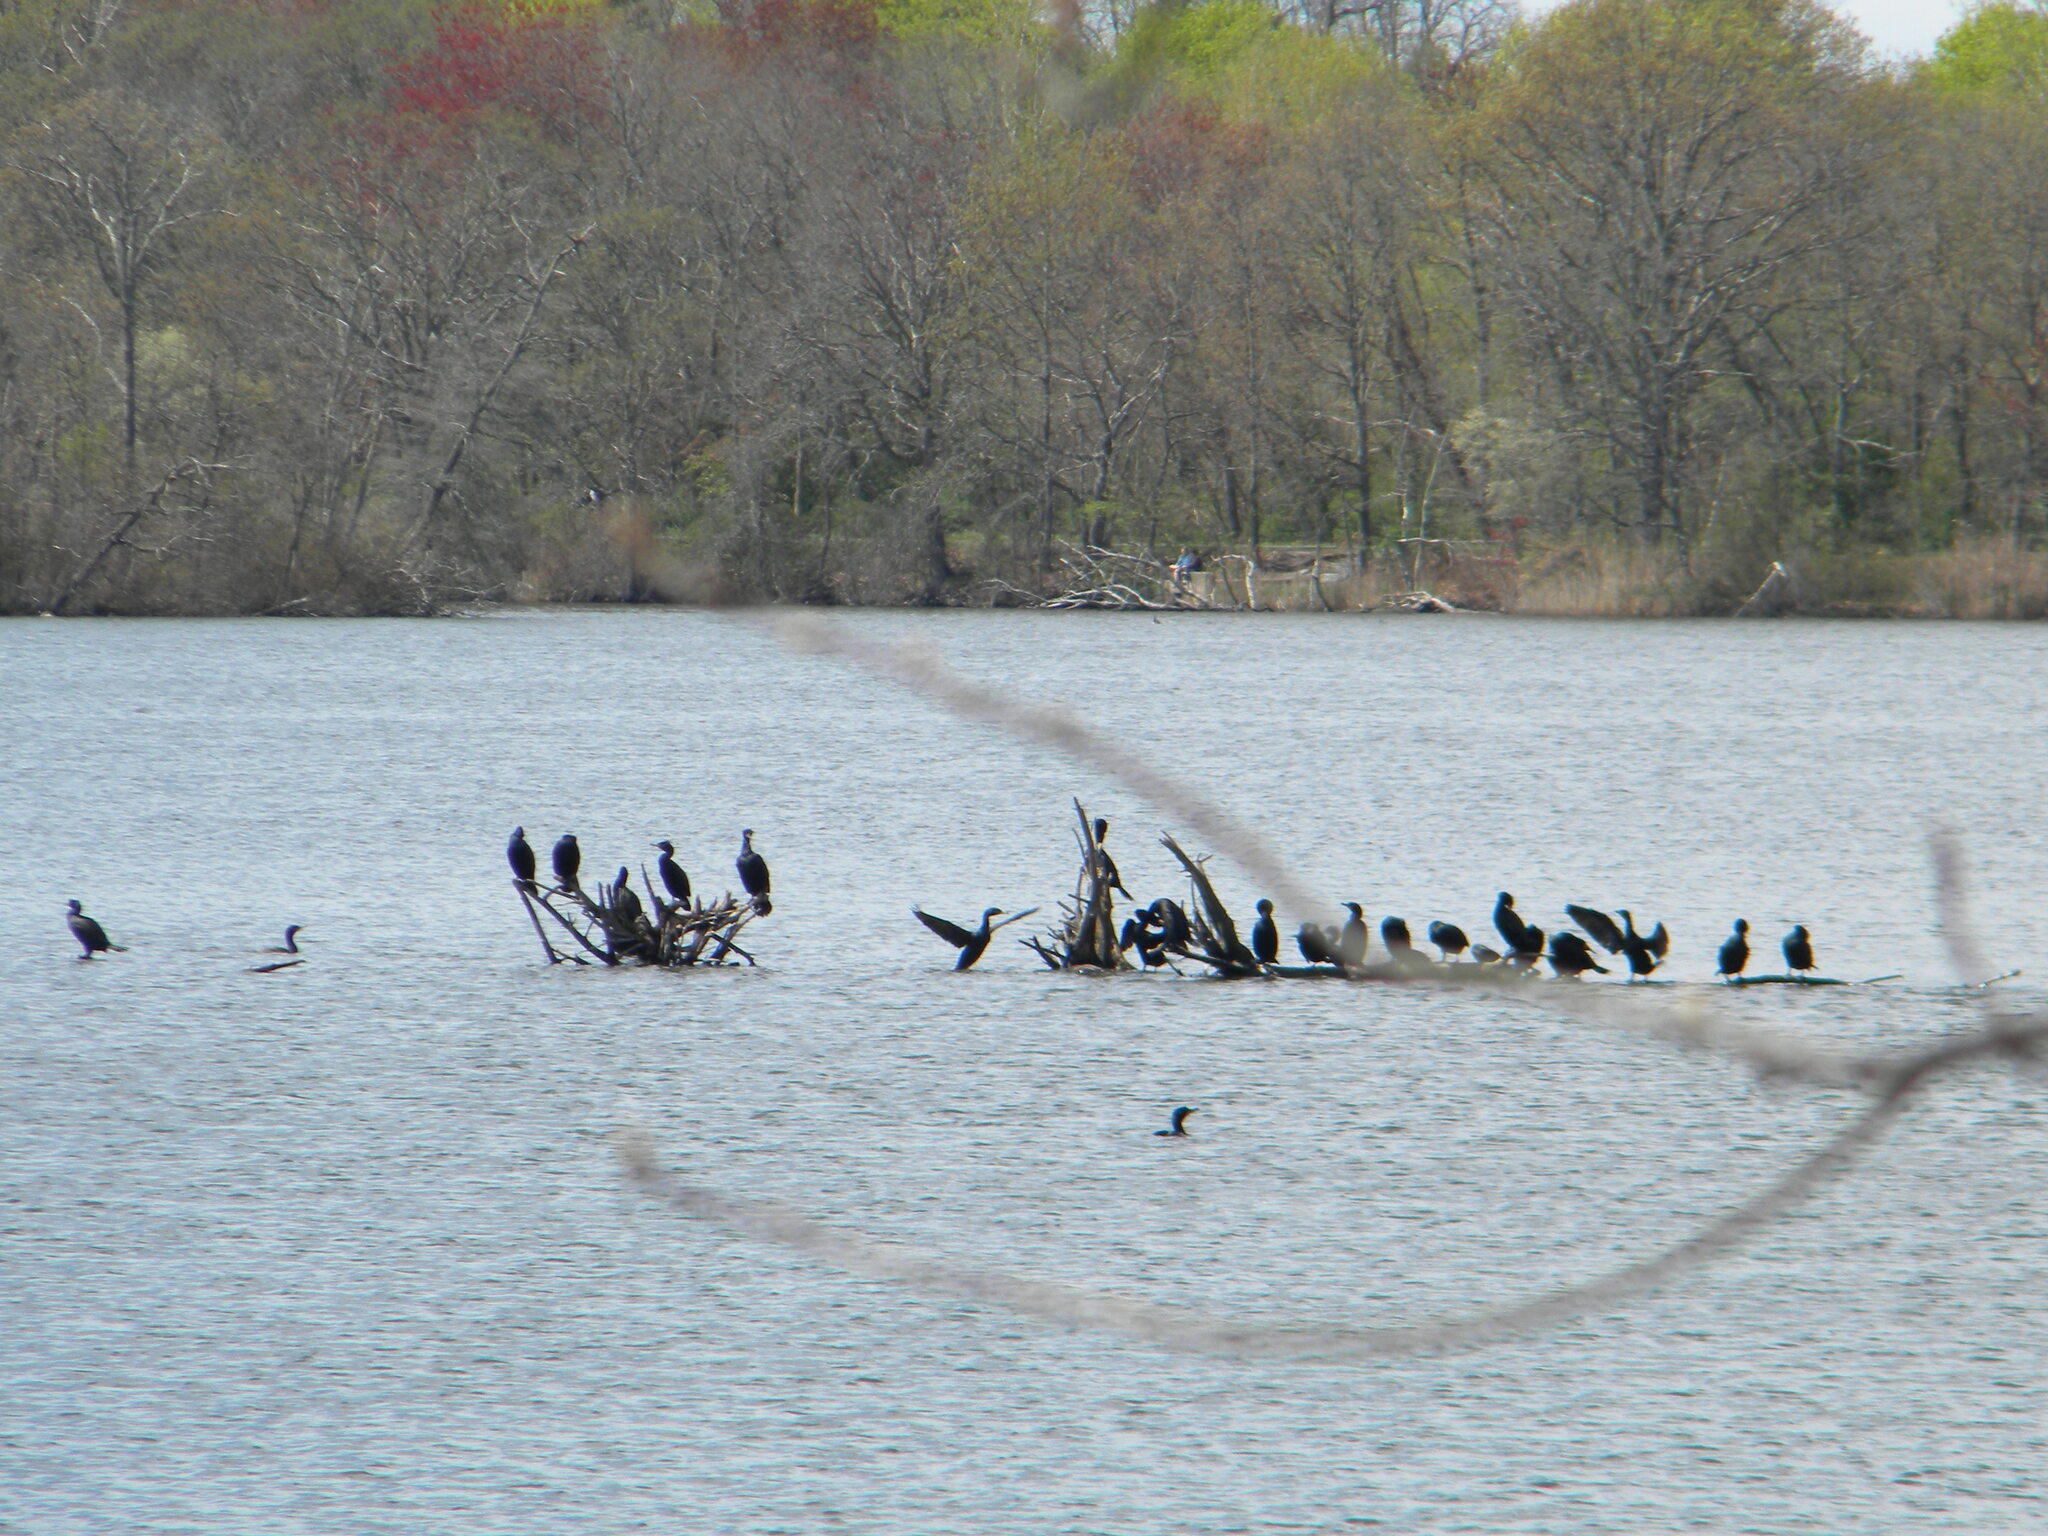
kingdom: Animalia
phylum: Chordata
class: Aves
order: Suliformes
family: Phalacrocoracidae
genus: Phalacrocorax
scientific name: Phalacrocorax auritus
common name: Double-crested cormorant
